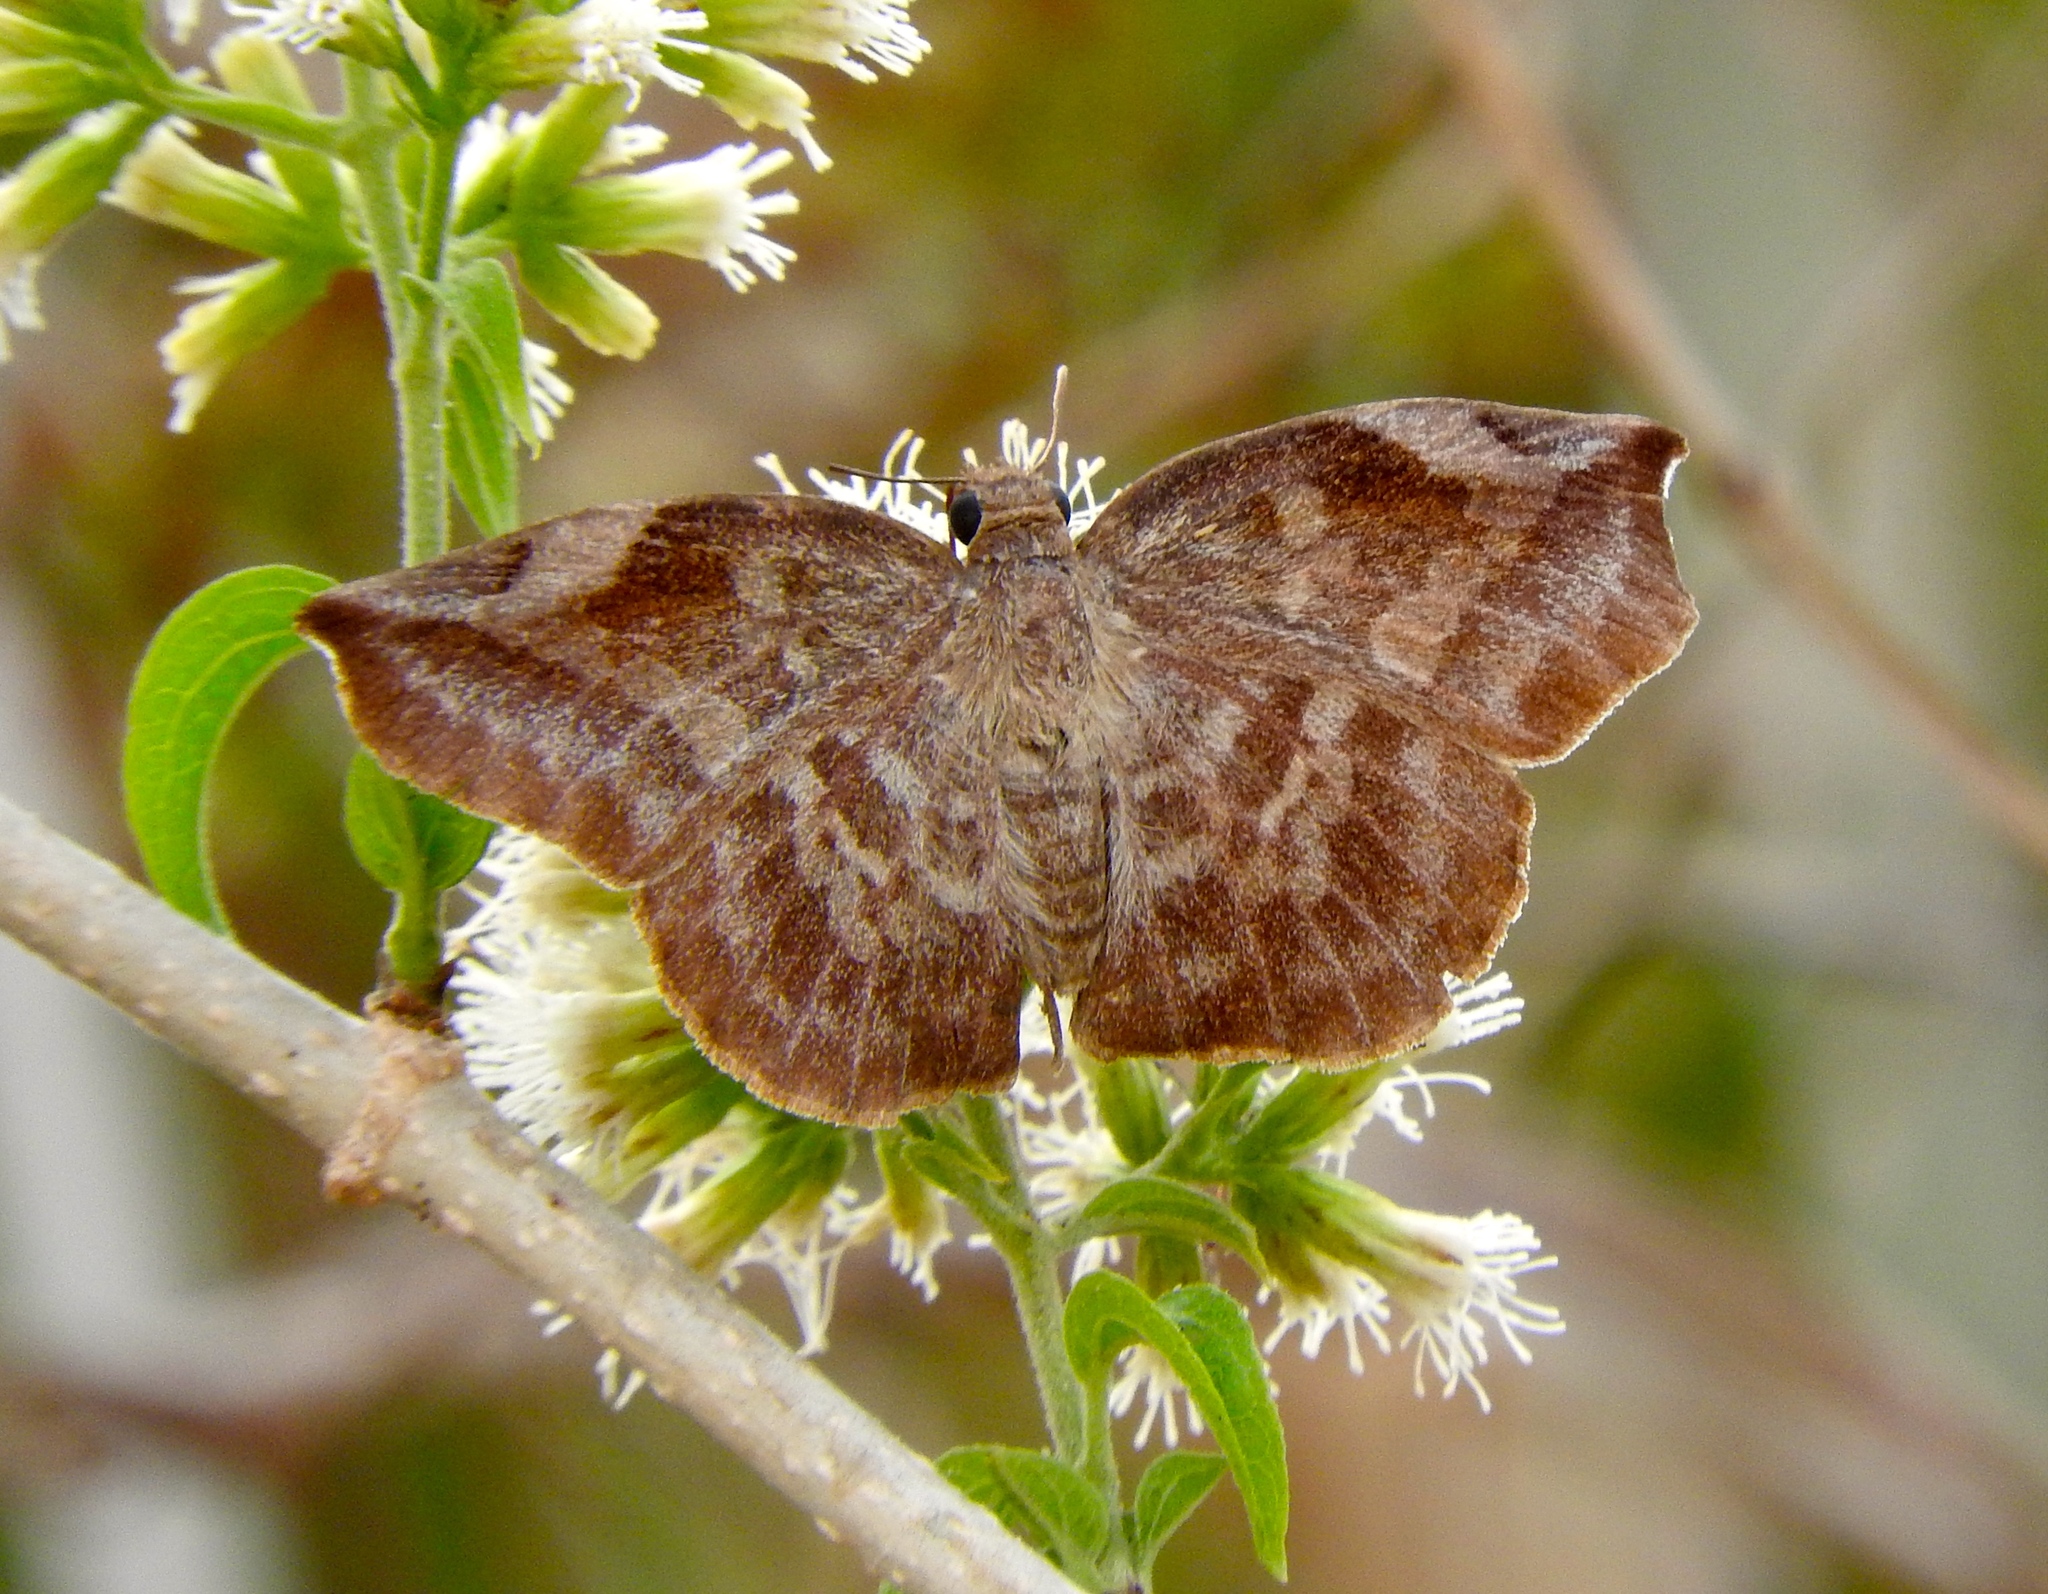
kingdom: Animalia
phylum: Arthropoda
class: Insecta
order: Lepidoptera
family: Hesperiidae
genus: Achlyodes
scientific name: Achlyodes thraso
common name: Sickle-winged skipper
